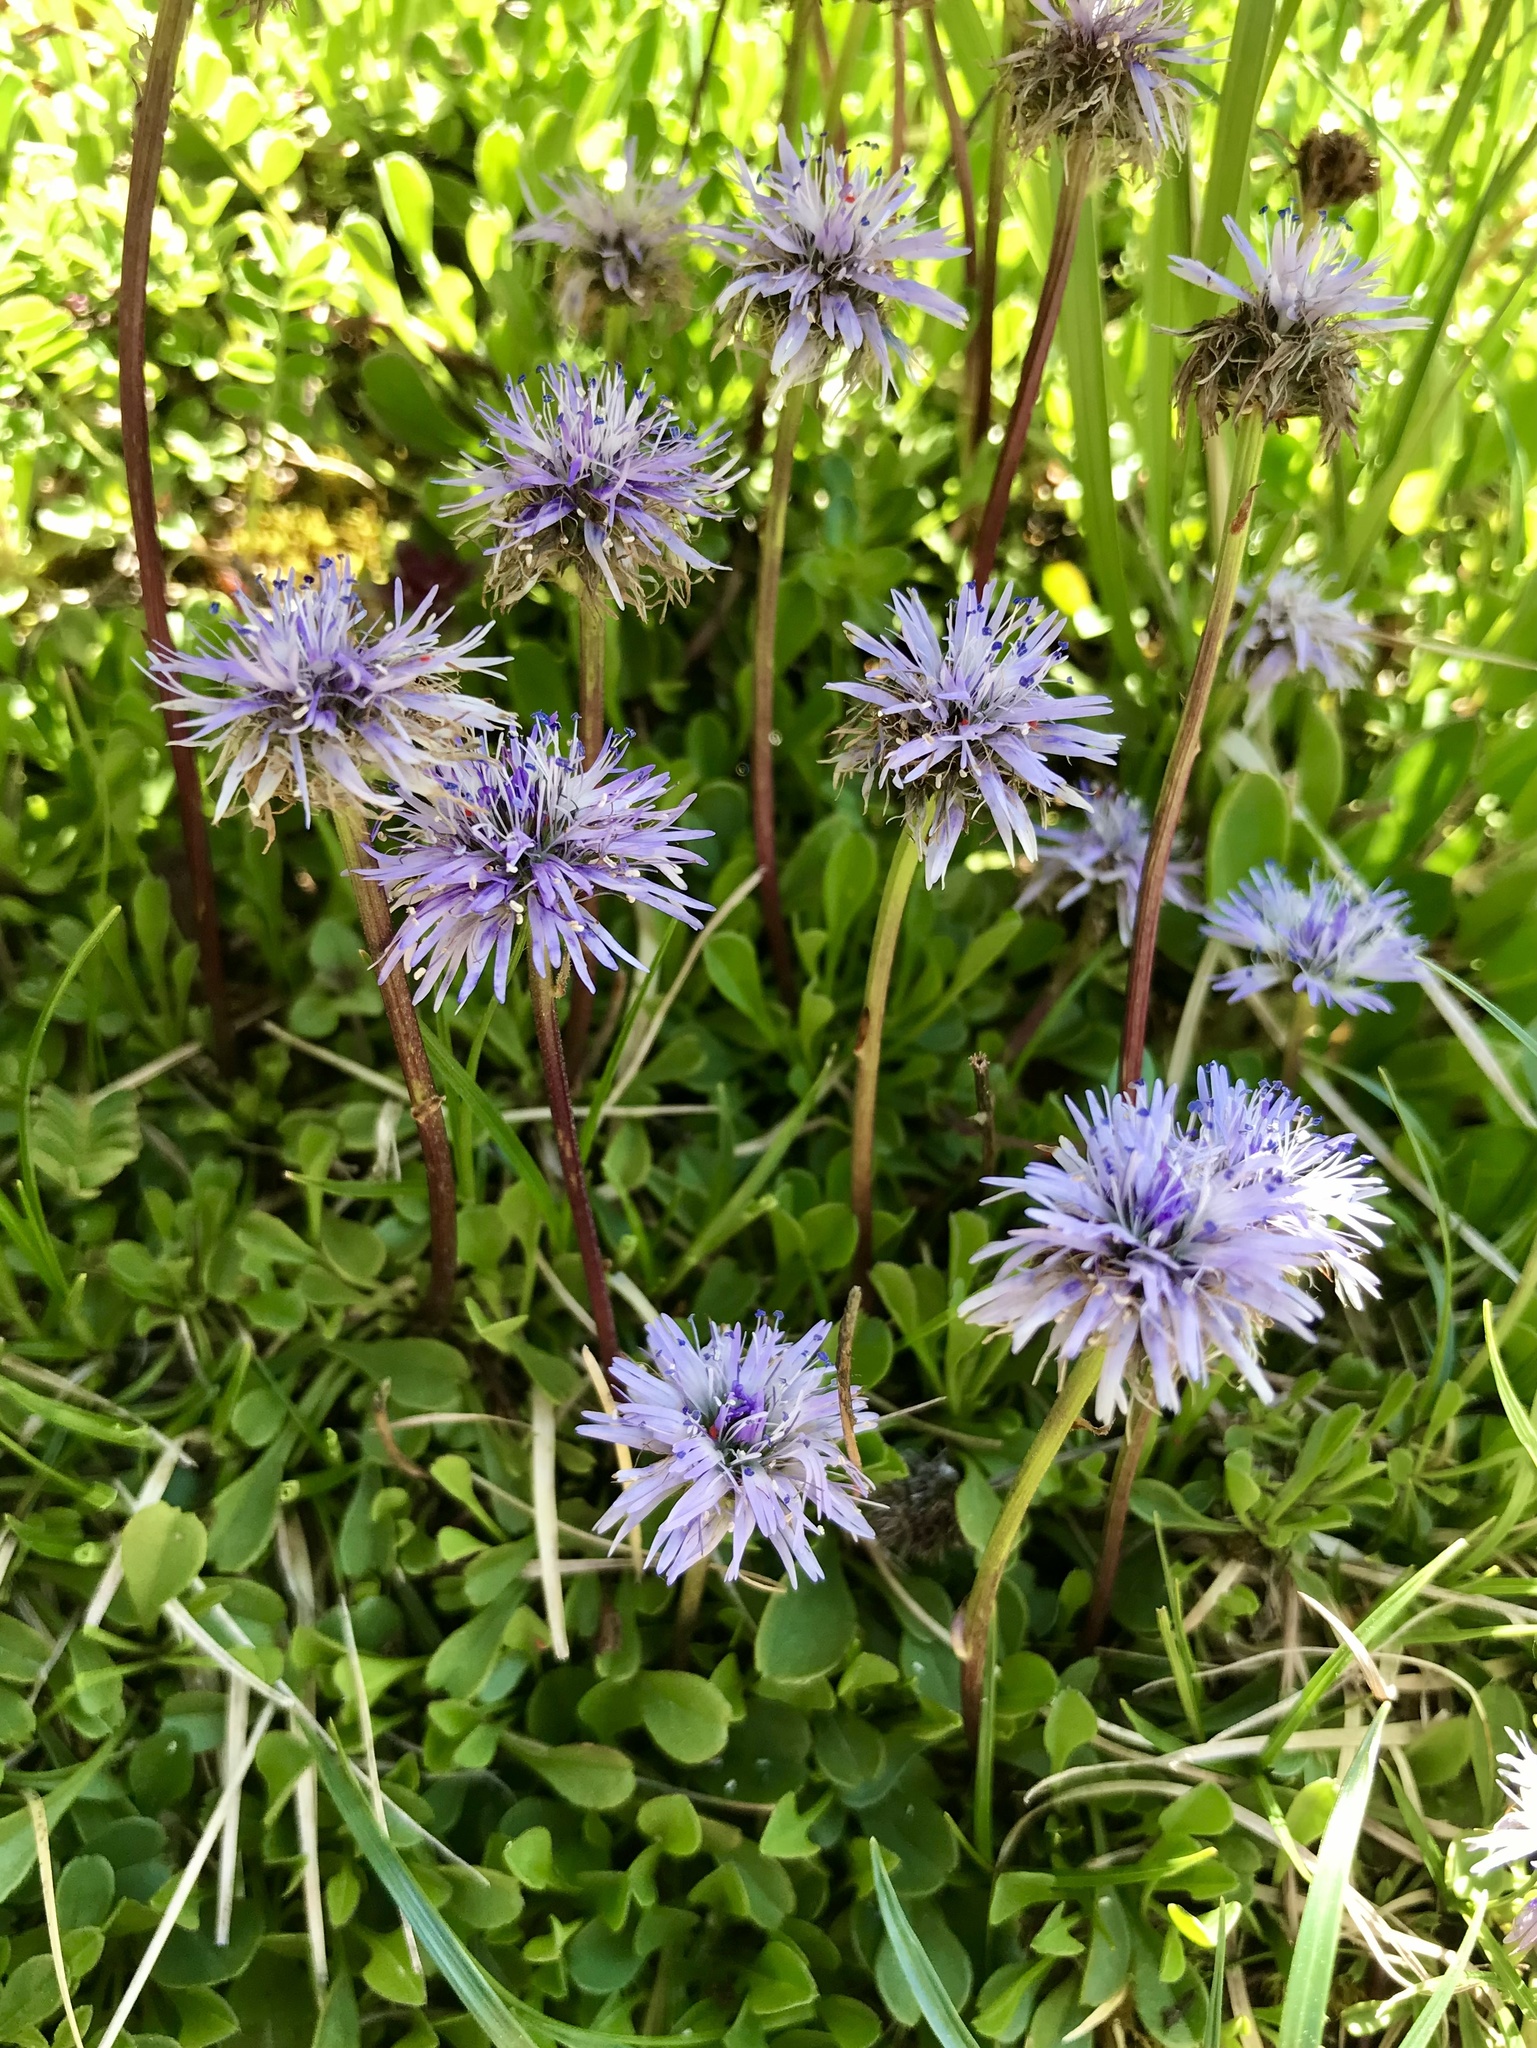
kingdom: Plantae
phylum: Tracheophyta
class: Magnoliopsida
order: Lamiales
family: Plantaginaceae
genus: Globularia
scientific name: Globularia cordifolia
